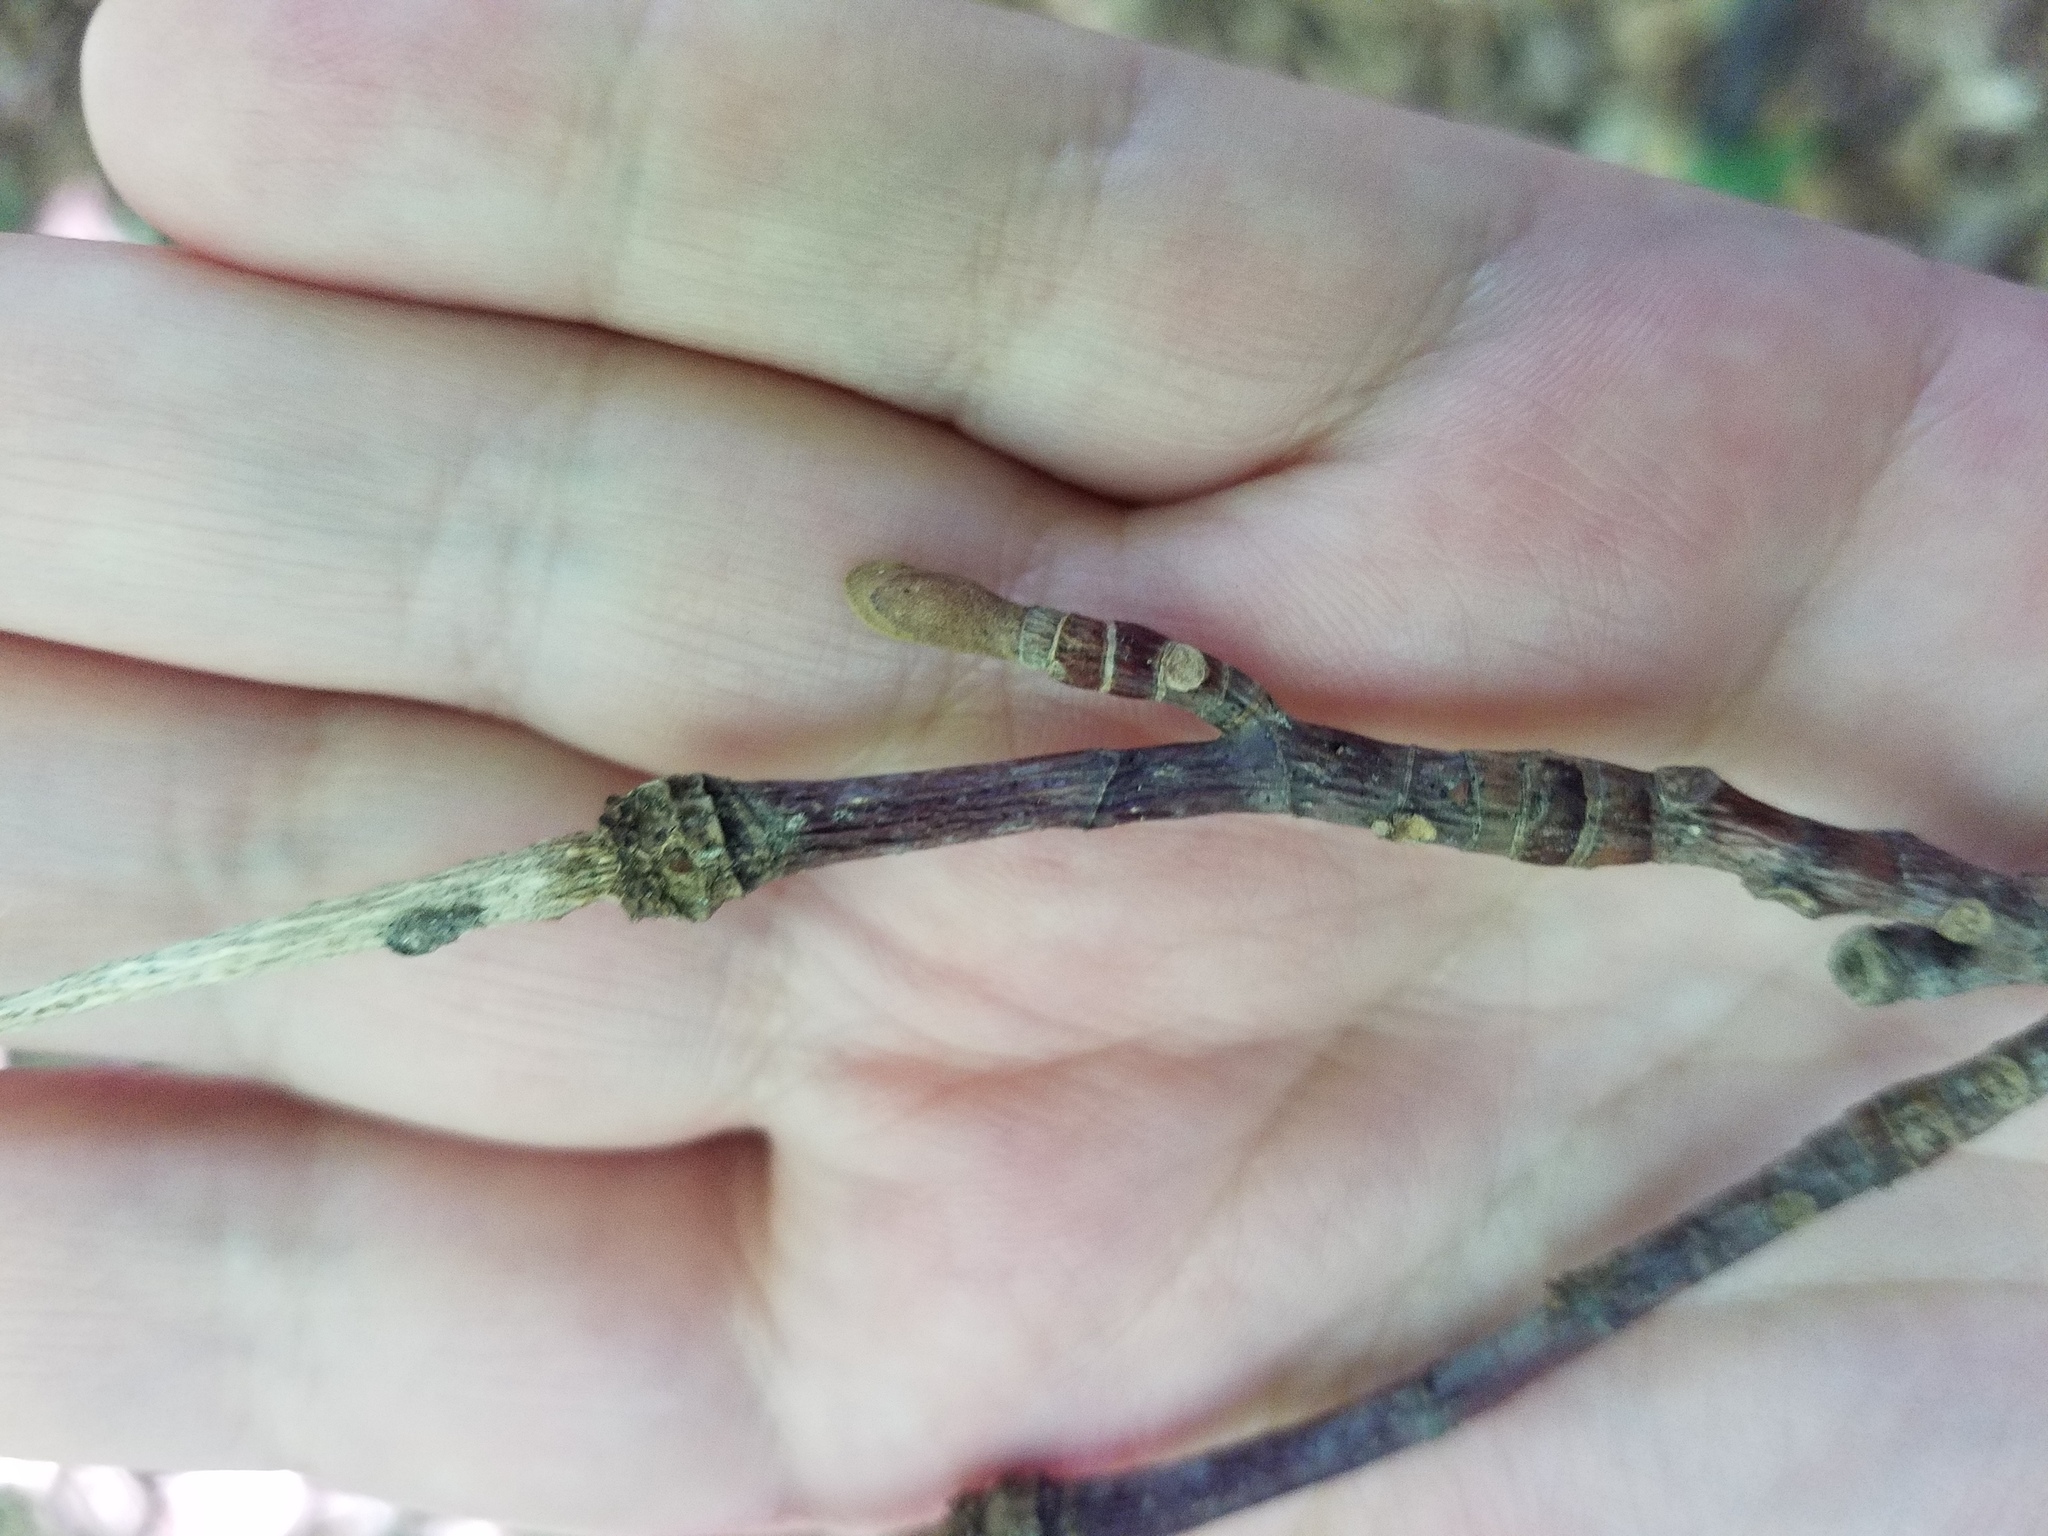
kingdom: Plantae
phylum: Tracheophyta
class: Magnoliopsida
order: Magnoliales
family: Magnoliaceae
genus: Liriodendron
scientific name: Liriodendron tulipifera
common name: Tulip tree
